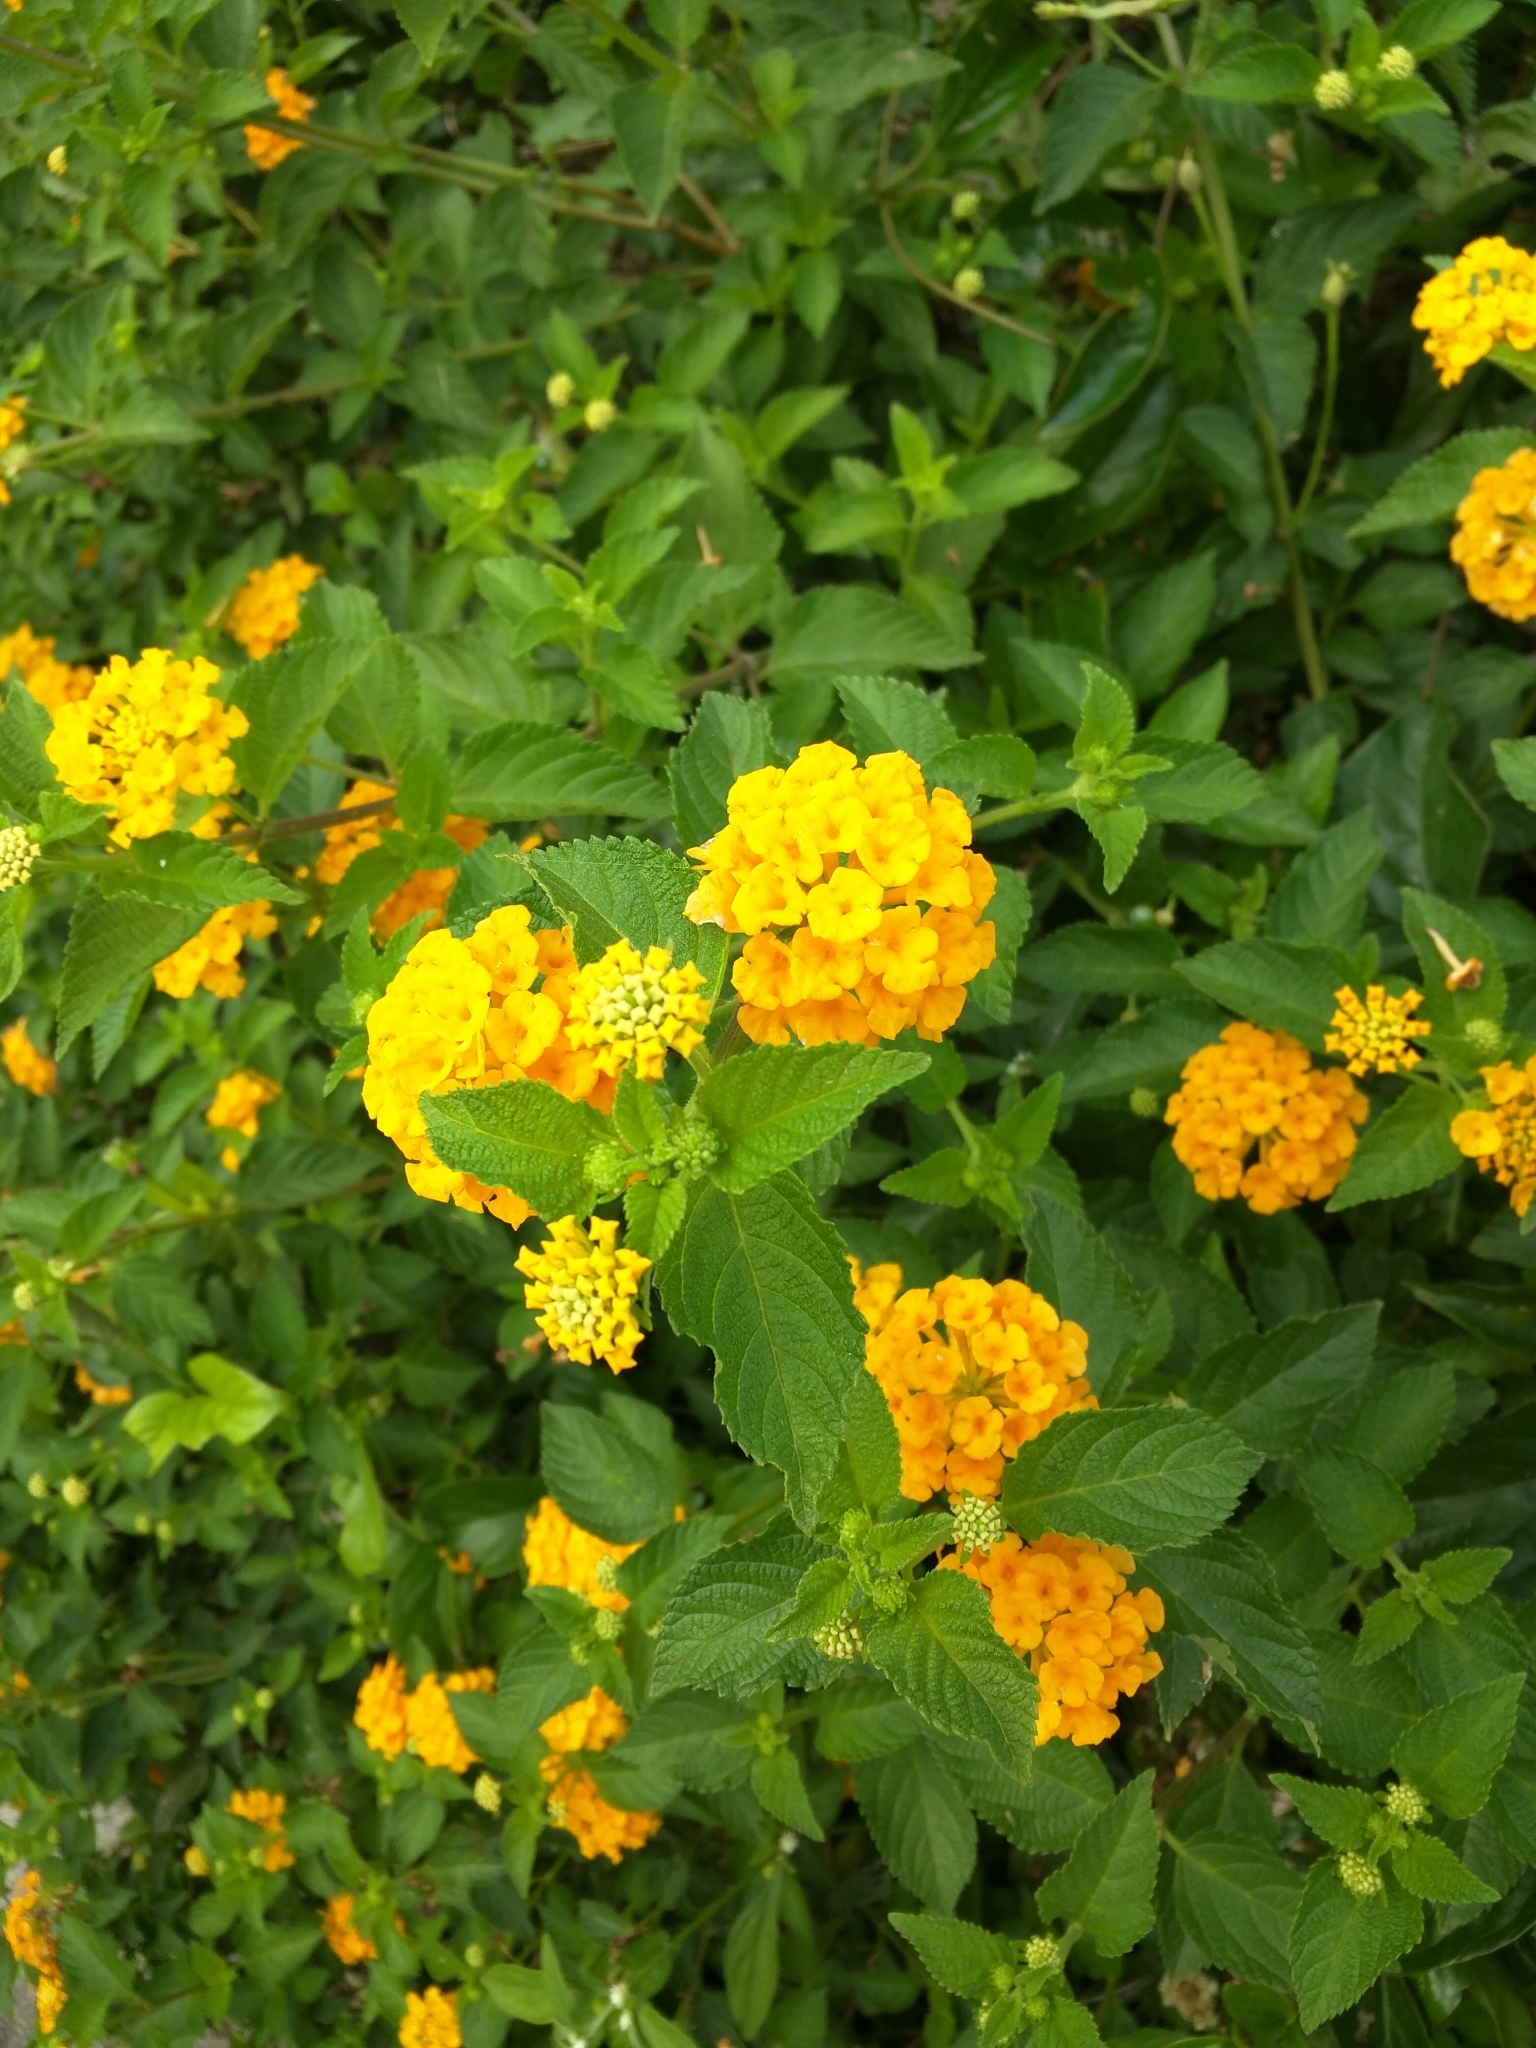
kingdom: Plantae
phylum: Tracheophyta
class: Magnoliopsida
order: Lamiales
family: Verbenaceae
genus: Lantana
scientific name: Lantana camara
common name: Lantana
